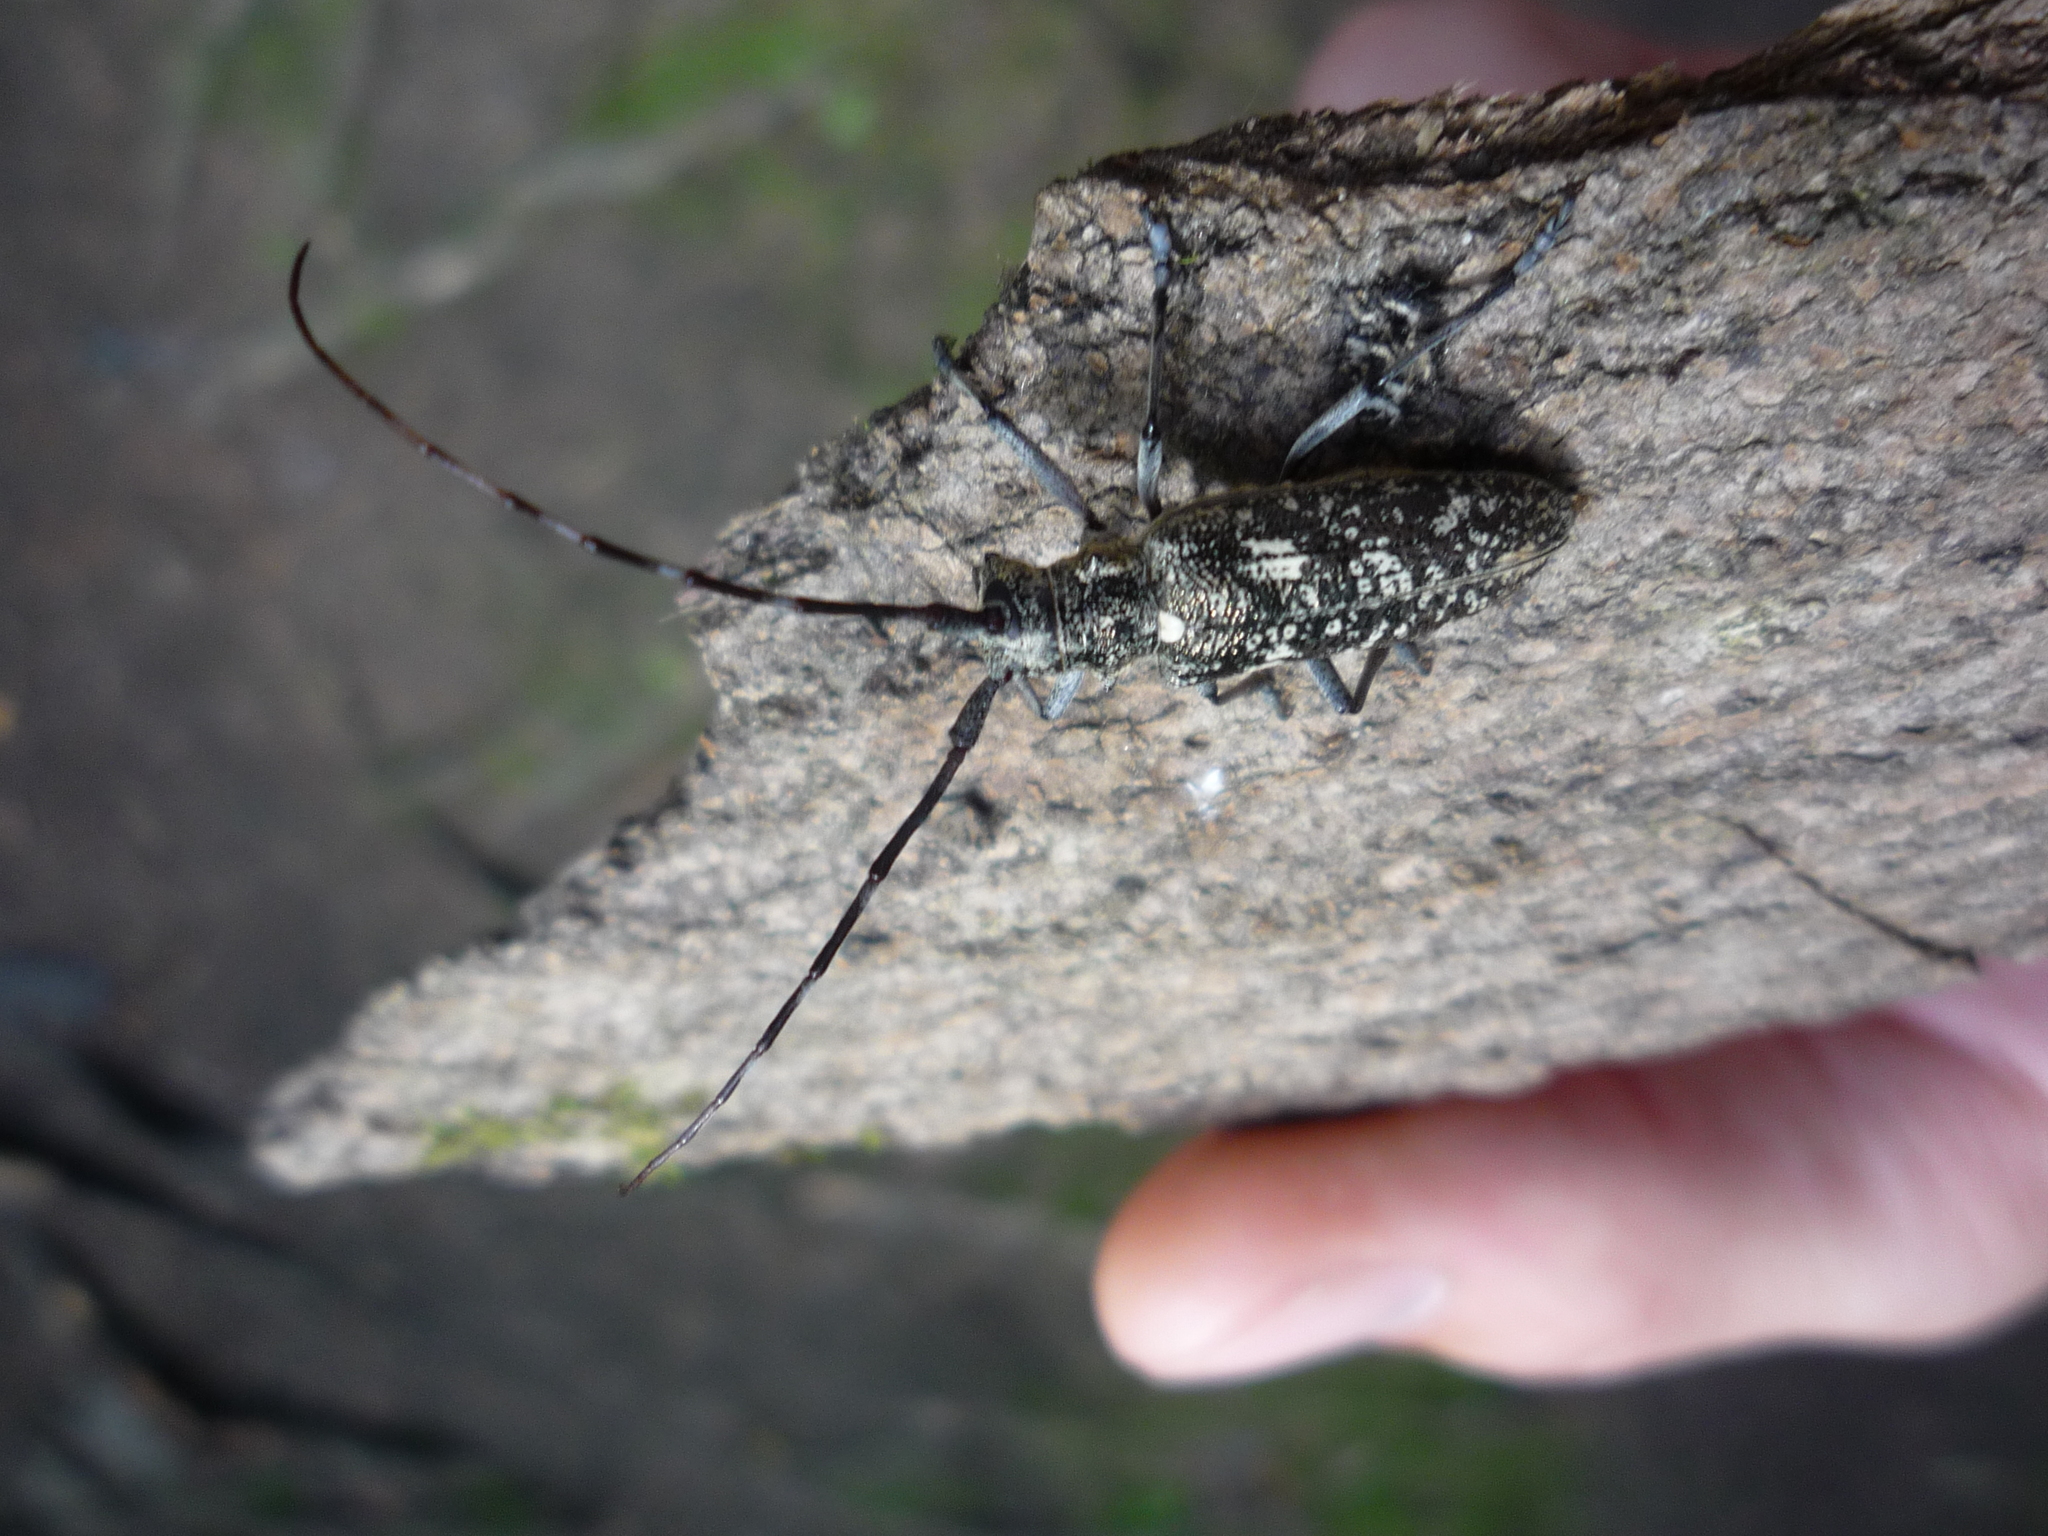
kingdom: Animalia
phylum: Arthropoda
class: Insecta
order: Coleoptera
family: Cerambycidae
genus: Monochamus
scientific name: Monochamus scutellatus
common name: White-spotted sawyer beetle
